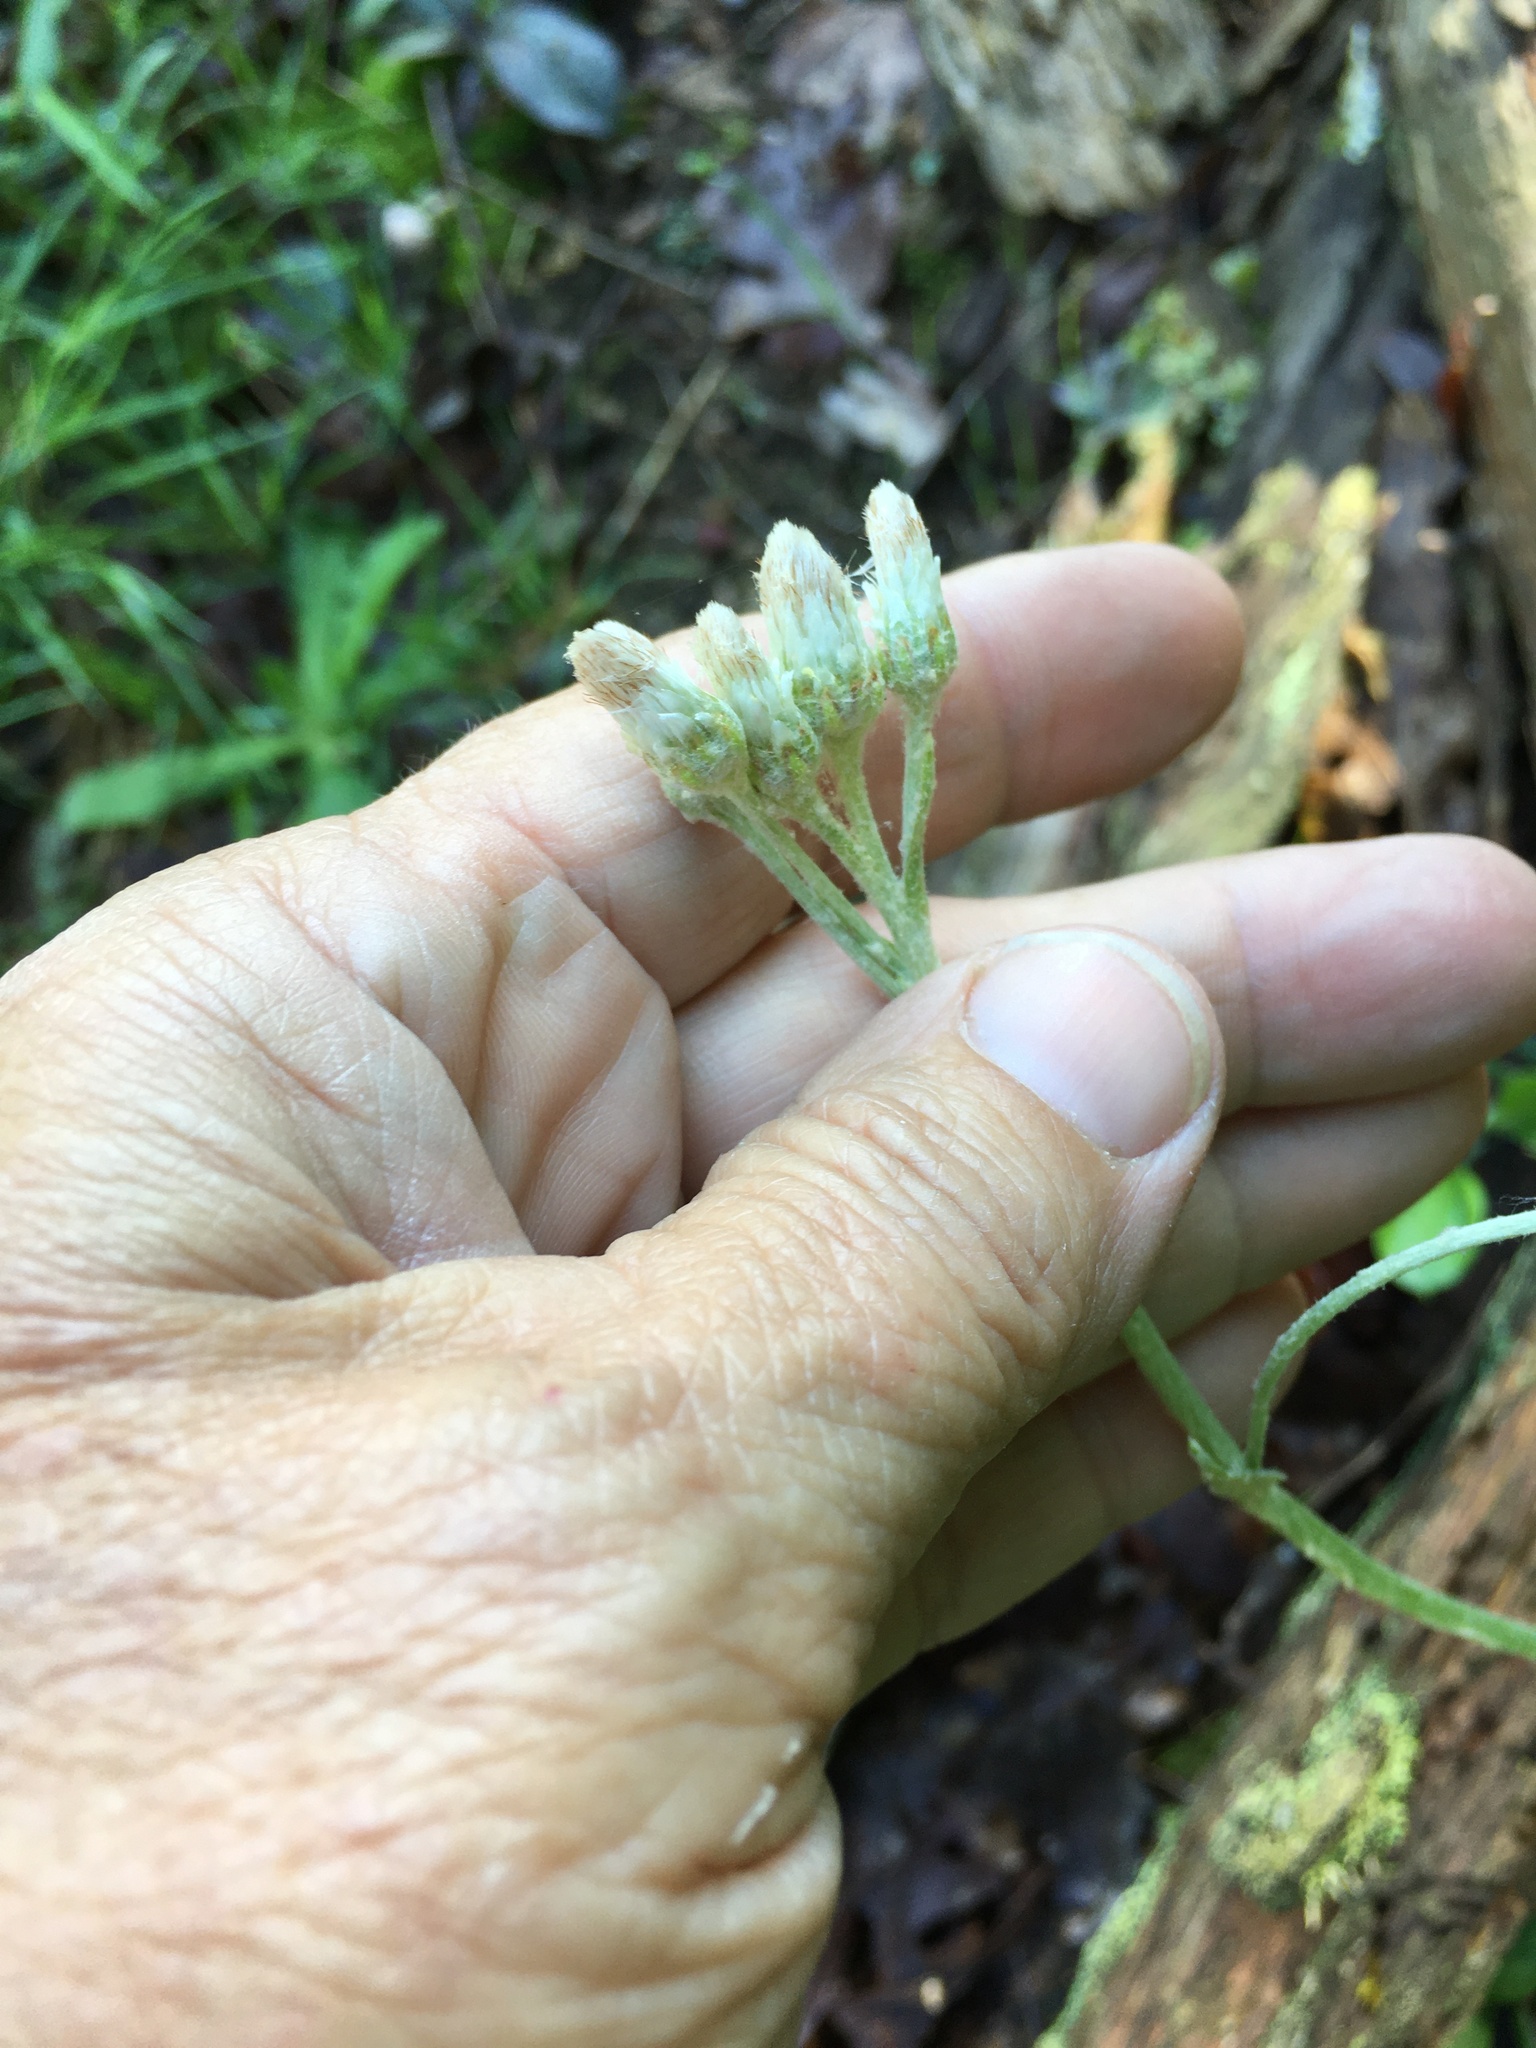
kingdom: Plantae
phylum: Tracheophyta
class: Magnoliopsida
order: Asterales
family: Asteraceae
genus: Antennaria
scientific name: Antennaria plantaginifolia
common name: Plantain-leaved pussytoes
